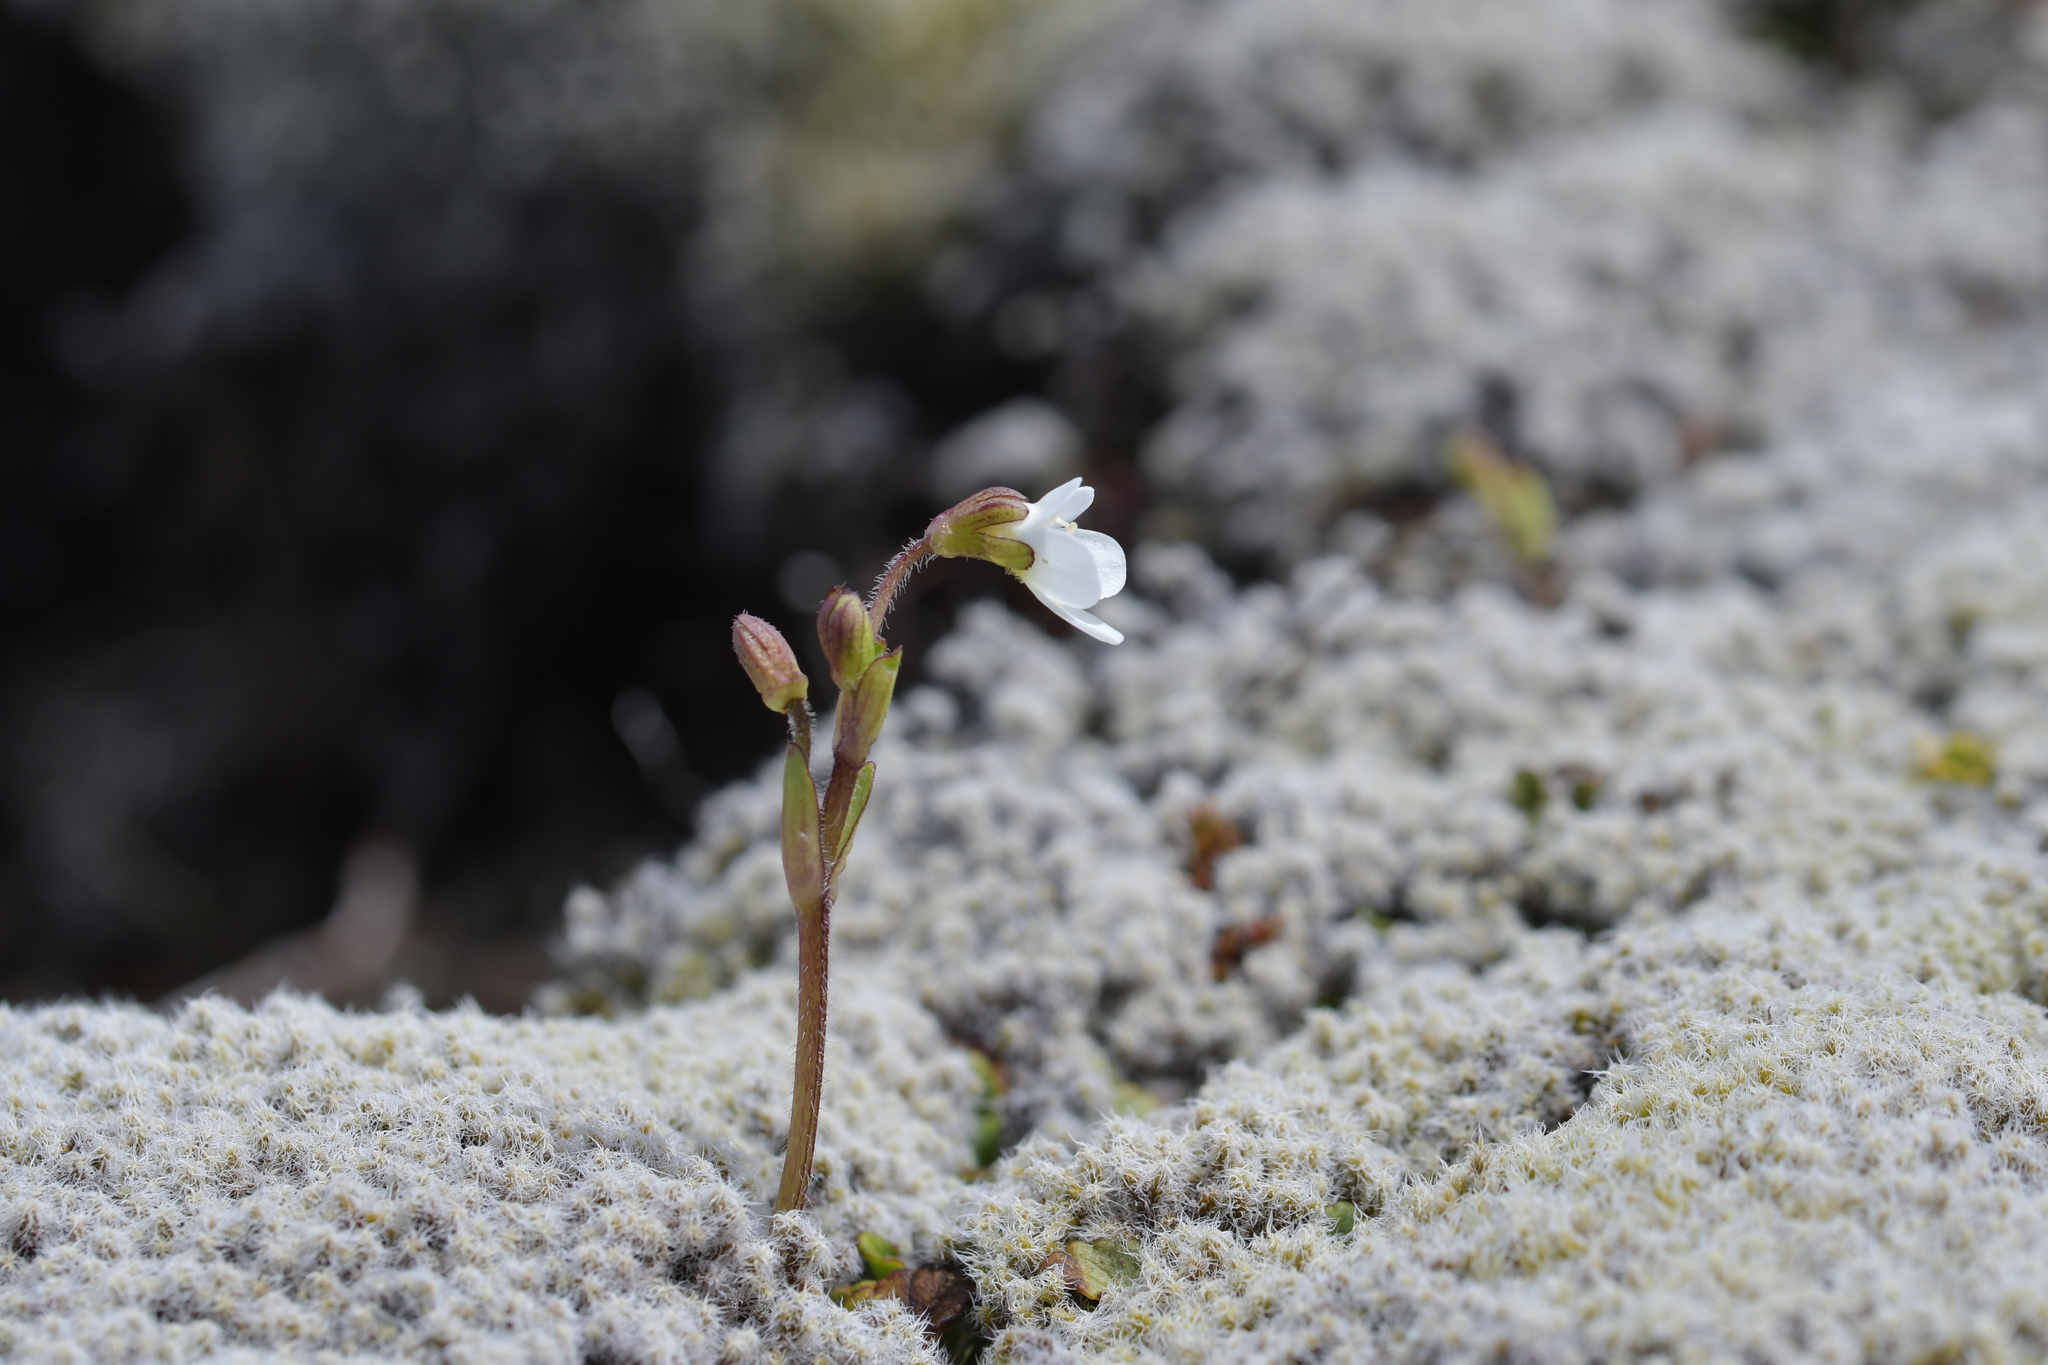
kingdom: Plantae
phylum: Tracheophyta
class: Magnoliopsida
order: Lamiales
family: Plantaginaceae
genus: Ourisia
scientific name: Ourisia vulcanica
